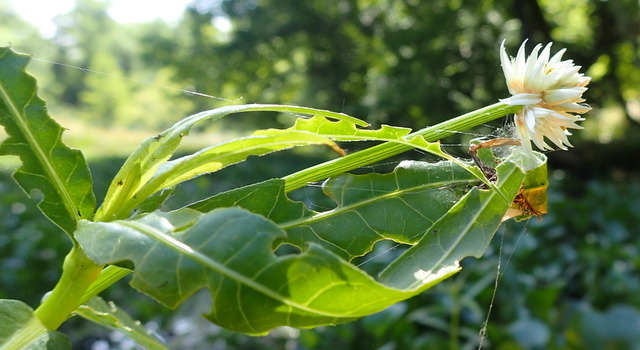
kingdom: Animalia
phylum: Arthropoda
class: Arachnida
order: Araneae
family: Araneidae
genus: Neoscona
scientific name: Neoscona arabesca
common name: Orb weavers
